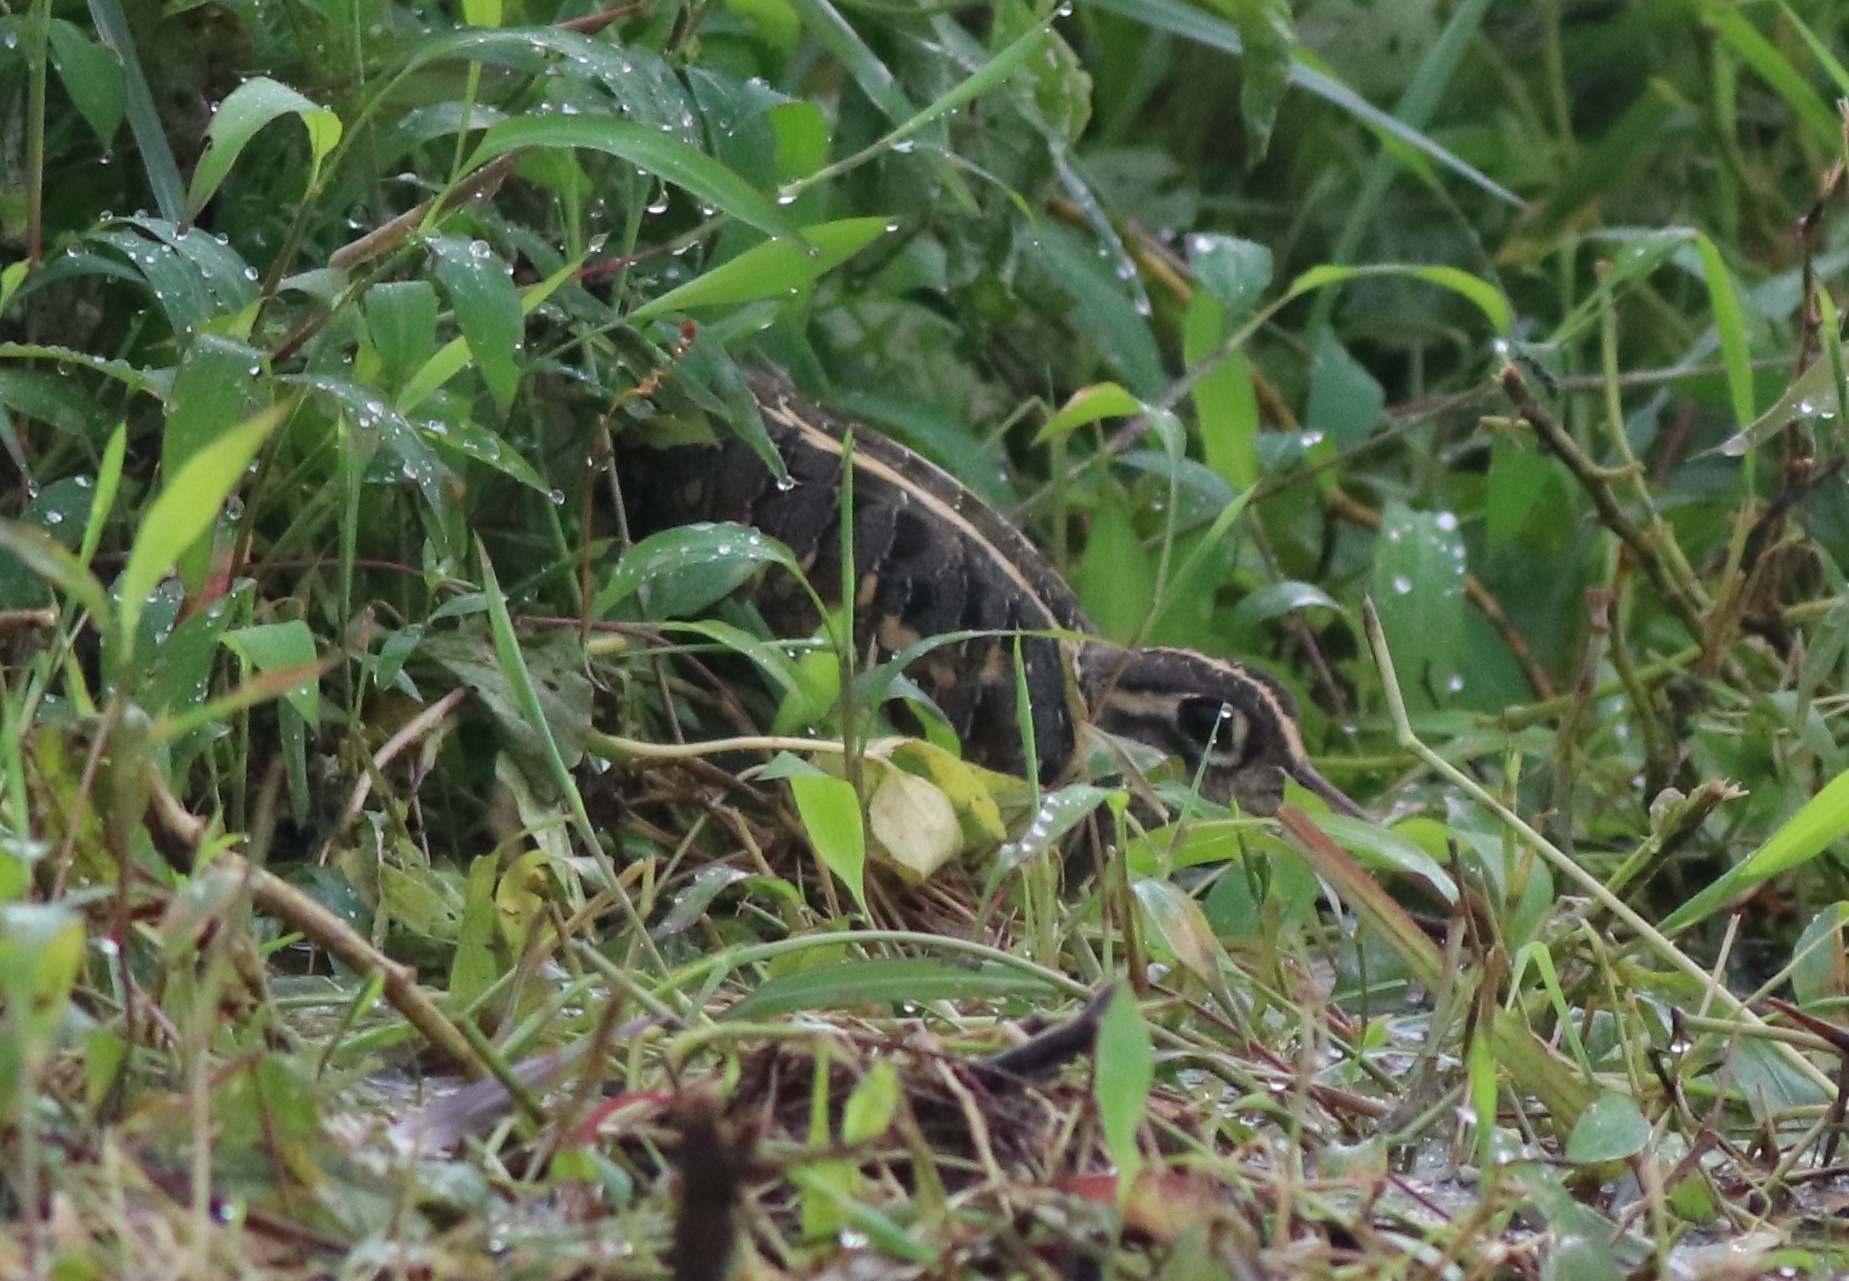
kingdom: Animalia
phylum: Chordata
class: Aves
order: Charadriiformes
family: Rostratulidae
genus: Rostratula
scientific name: Rostratula benghalensis
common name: Greater painted-snipe
